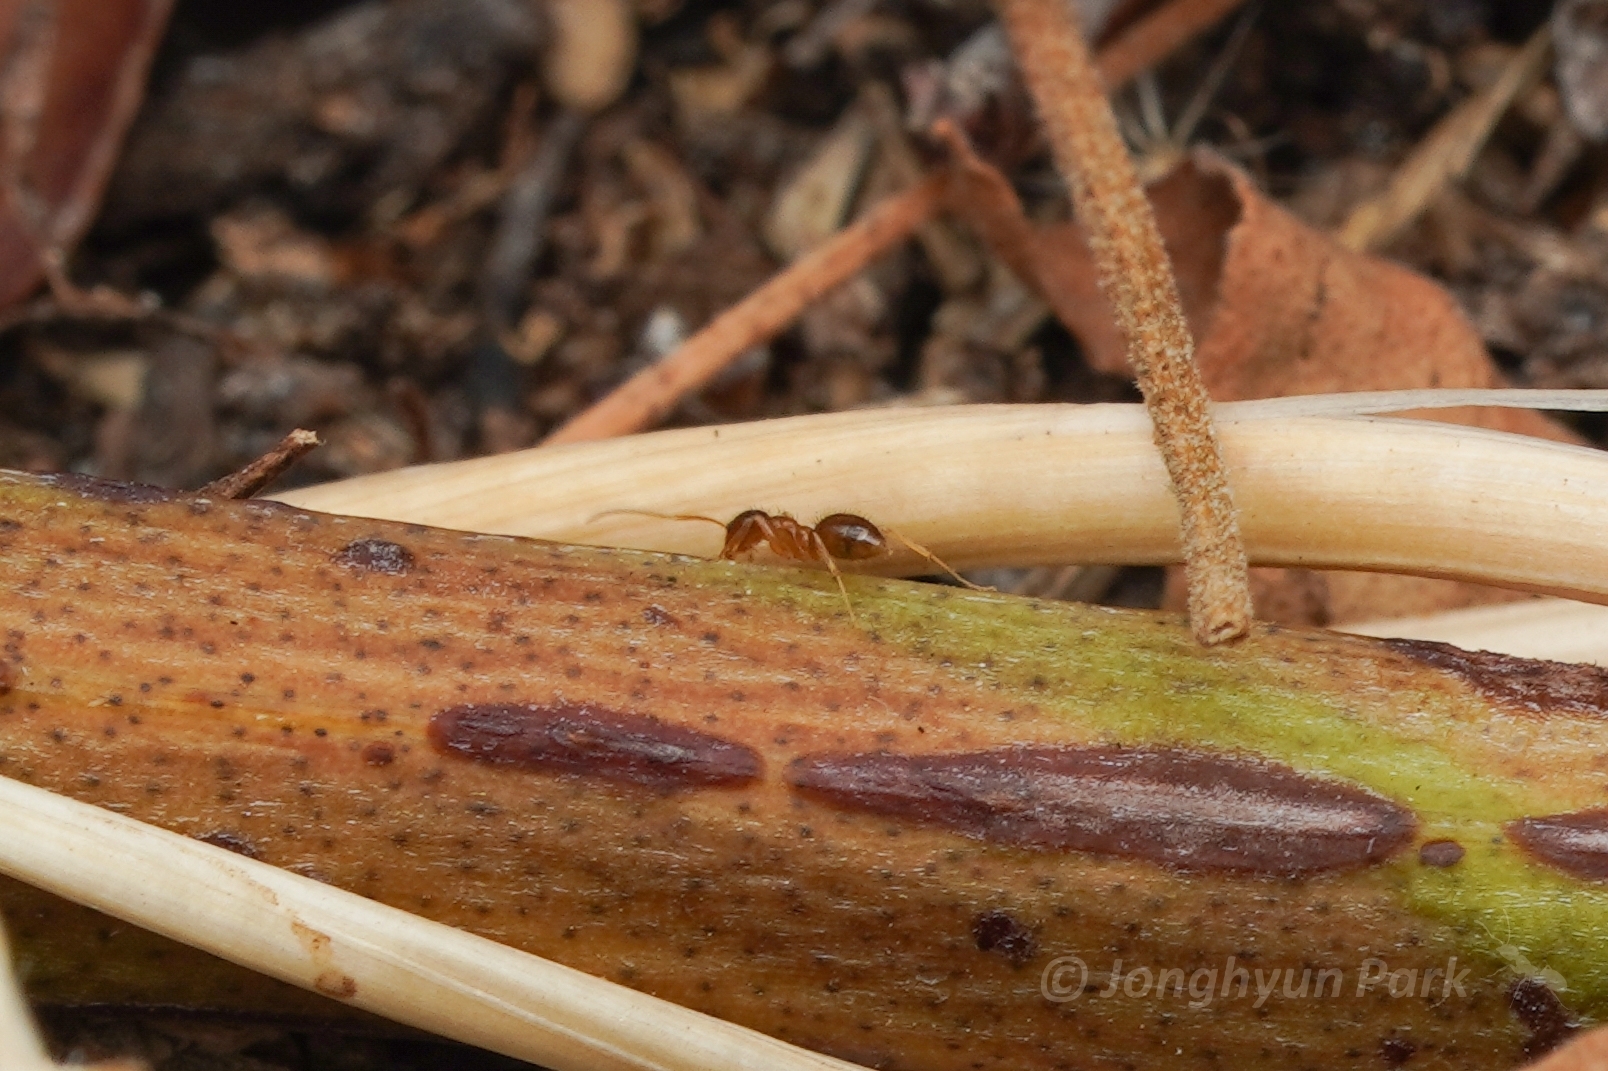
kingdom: Animalia
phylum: Arthropoda
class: Insecta
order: Hymenoptera
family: Formicidae
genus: Nylanderia
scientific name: Nylanderia
